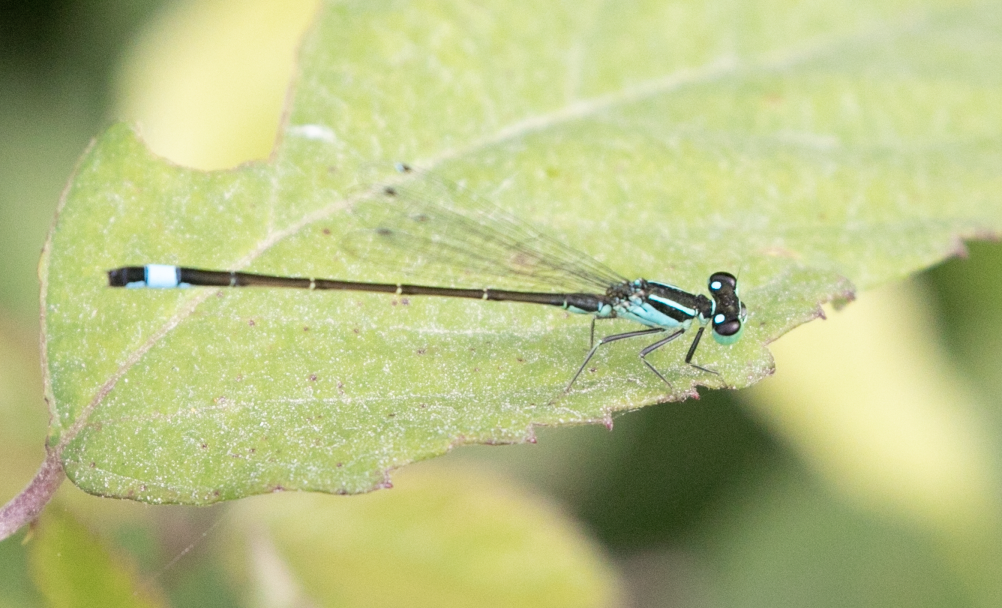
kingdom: Animalia
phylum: Arthropoda
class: Insecta
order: Odonata
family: Coenagrionidae
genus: Ischnura
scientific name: Ischnura elegans
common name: Blue-tailed damselfly
